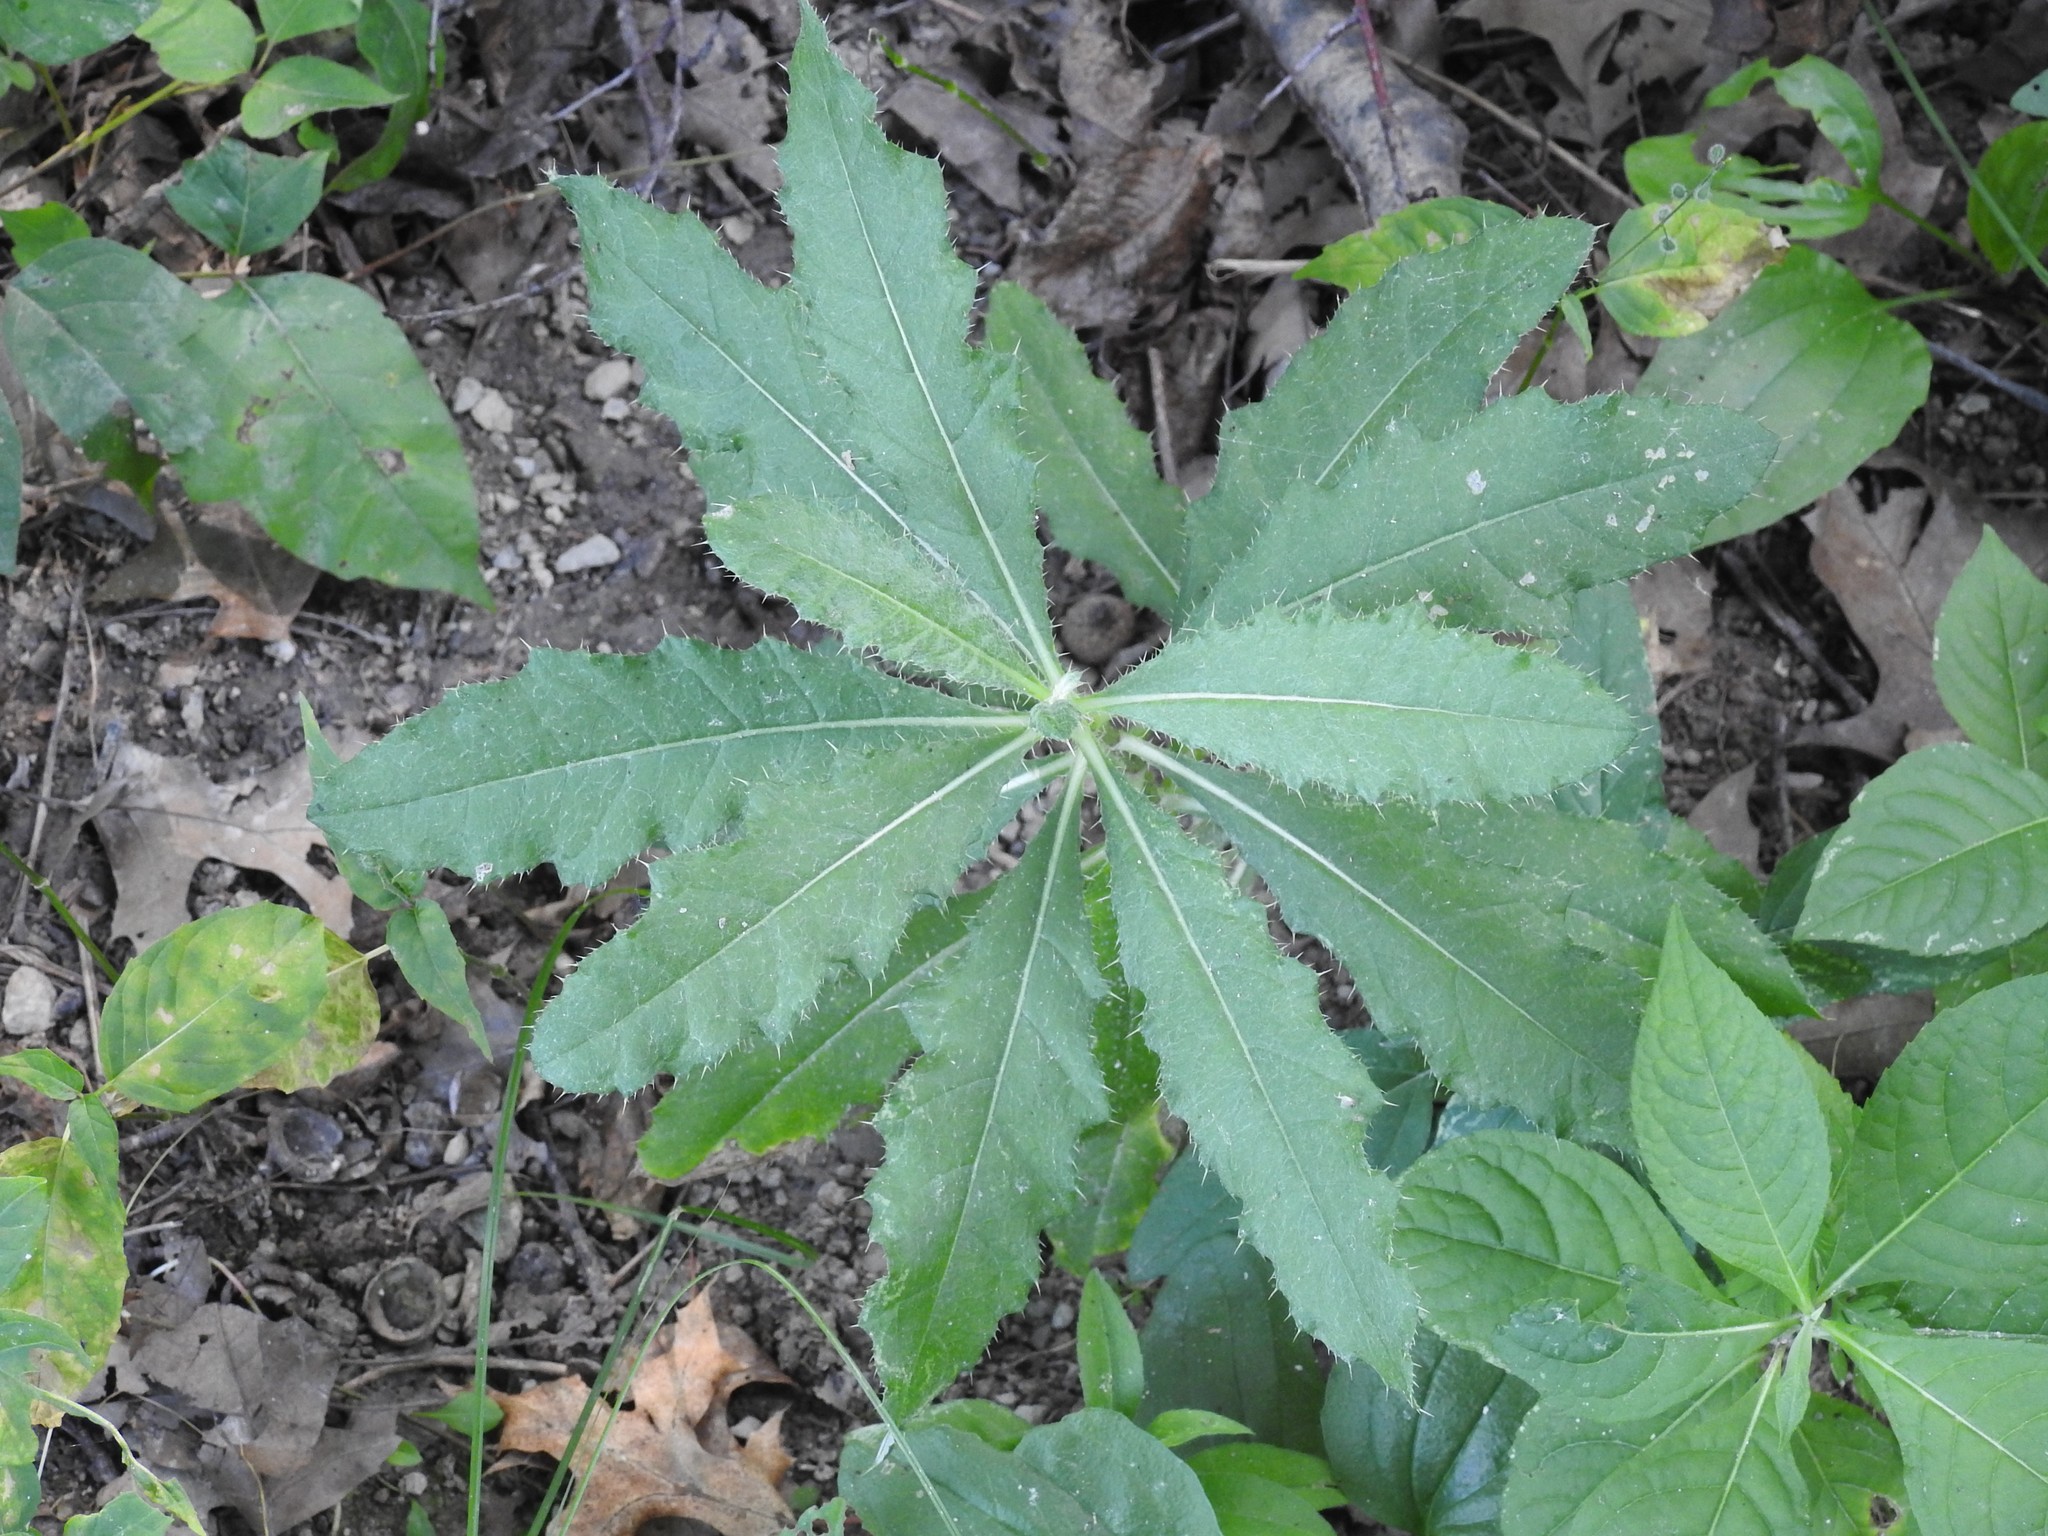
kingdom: Plantae
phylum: Tracheophyta
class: Magnoliopsida
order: Asterales
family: Asteraceae
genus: Cirsium
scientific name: Cirsium arvense
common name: Creeping thistle
